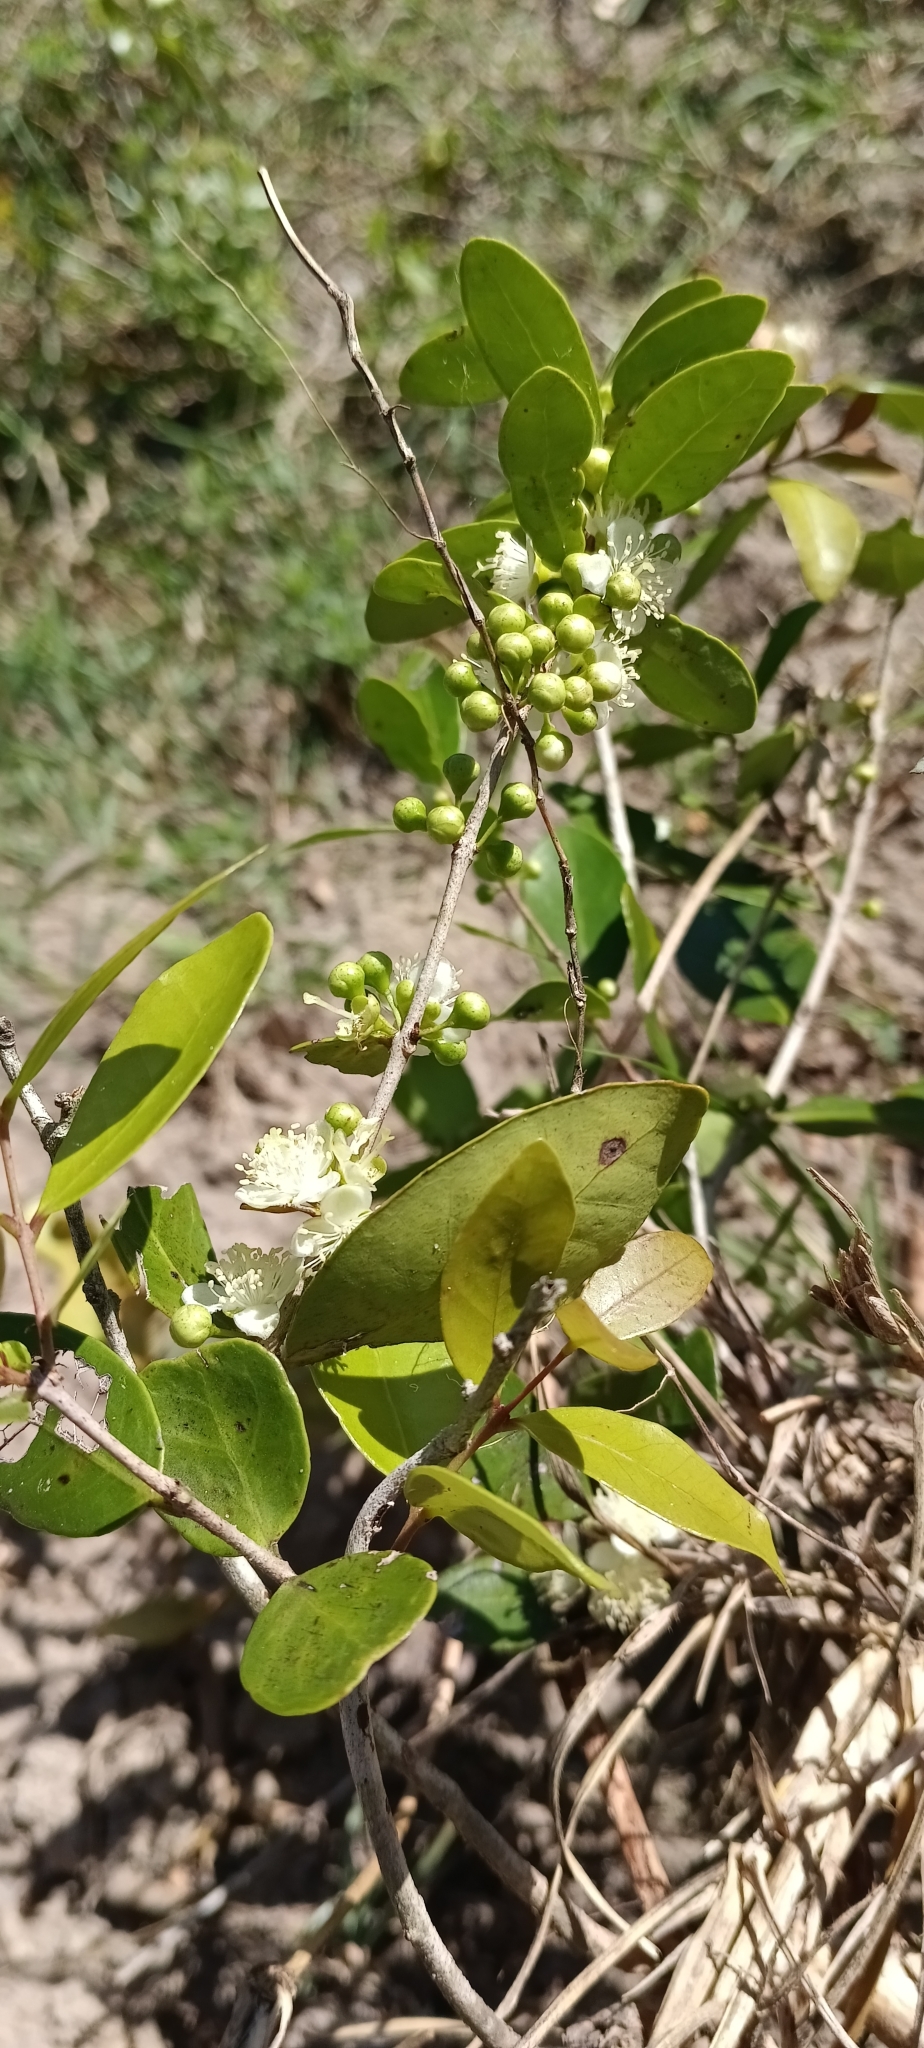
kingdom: Plantae
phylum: Tracheophyta
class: Magnoliopsida
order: Myrtales
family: Myrtaceae
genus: Eugenia
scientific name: Eugenia capensis
